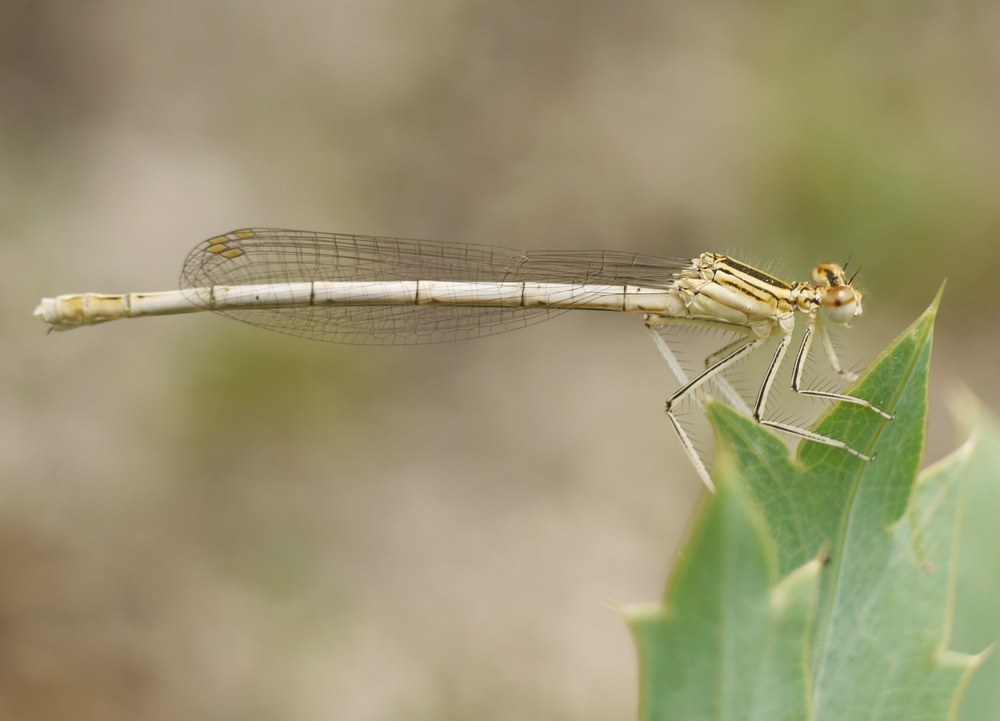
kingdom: Animalia
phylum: Arthropoda
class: Insecta
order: Odonata
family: Platycnemididae
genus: Platycnemis
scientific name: Platycnemis pennipes
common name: White-legged damselfly
